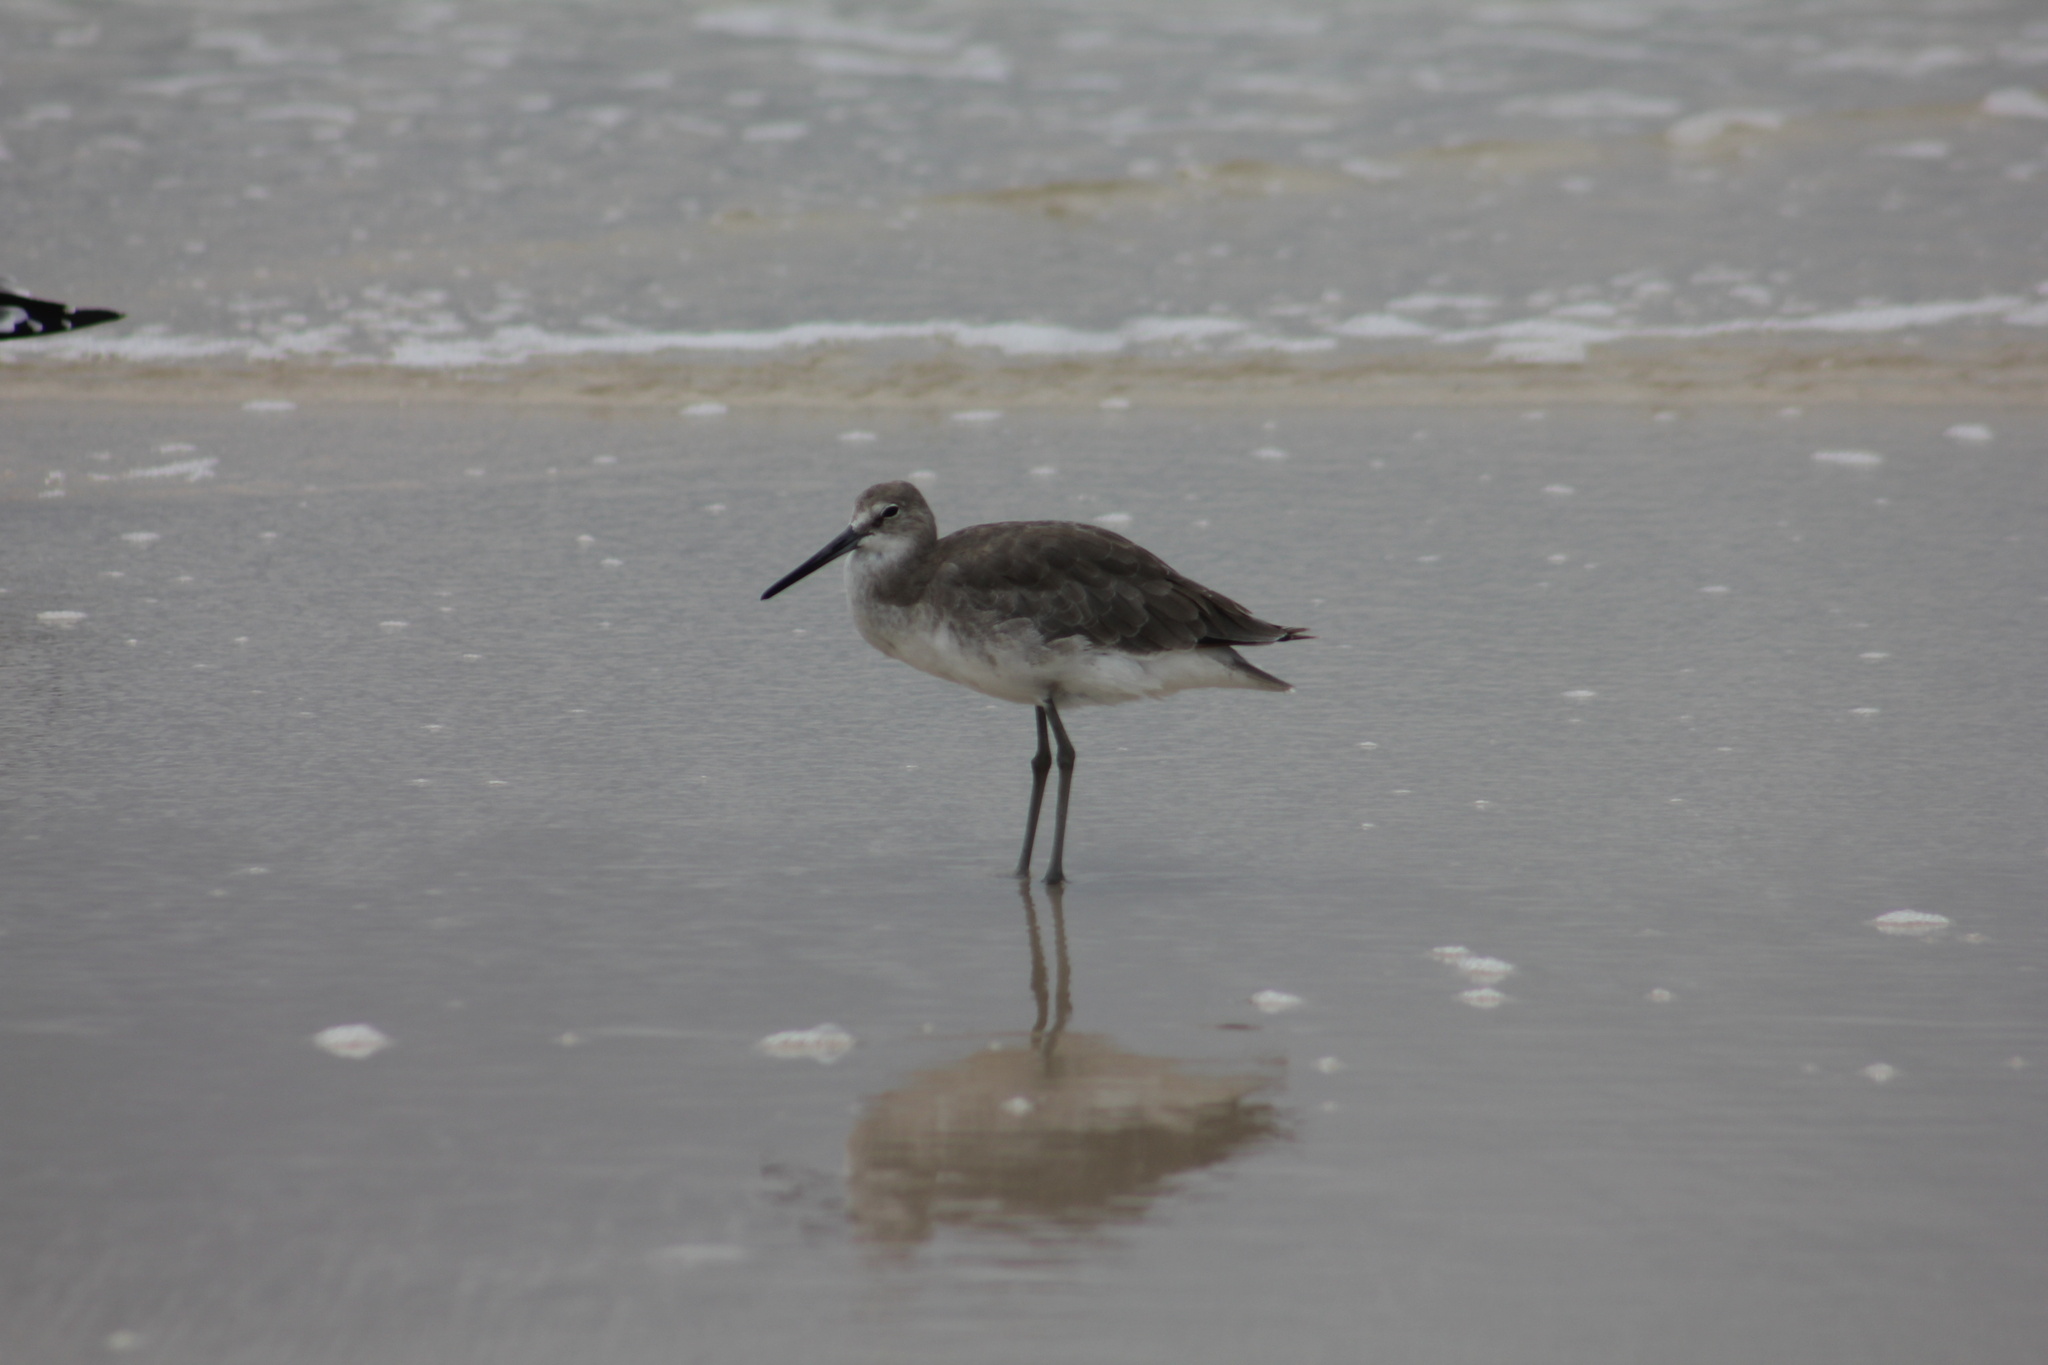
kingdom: Animalia
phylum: Chordata
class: Aves
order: Charadriiformes
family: Scolopacidae
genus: Tringa
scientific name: Tringa semipalmata
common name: Willet
